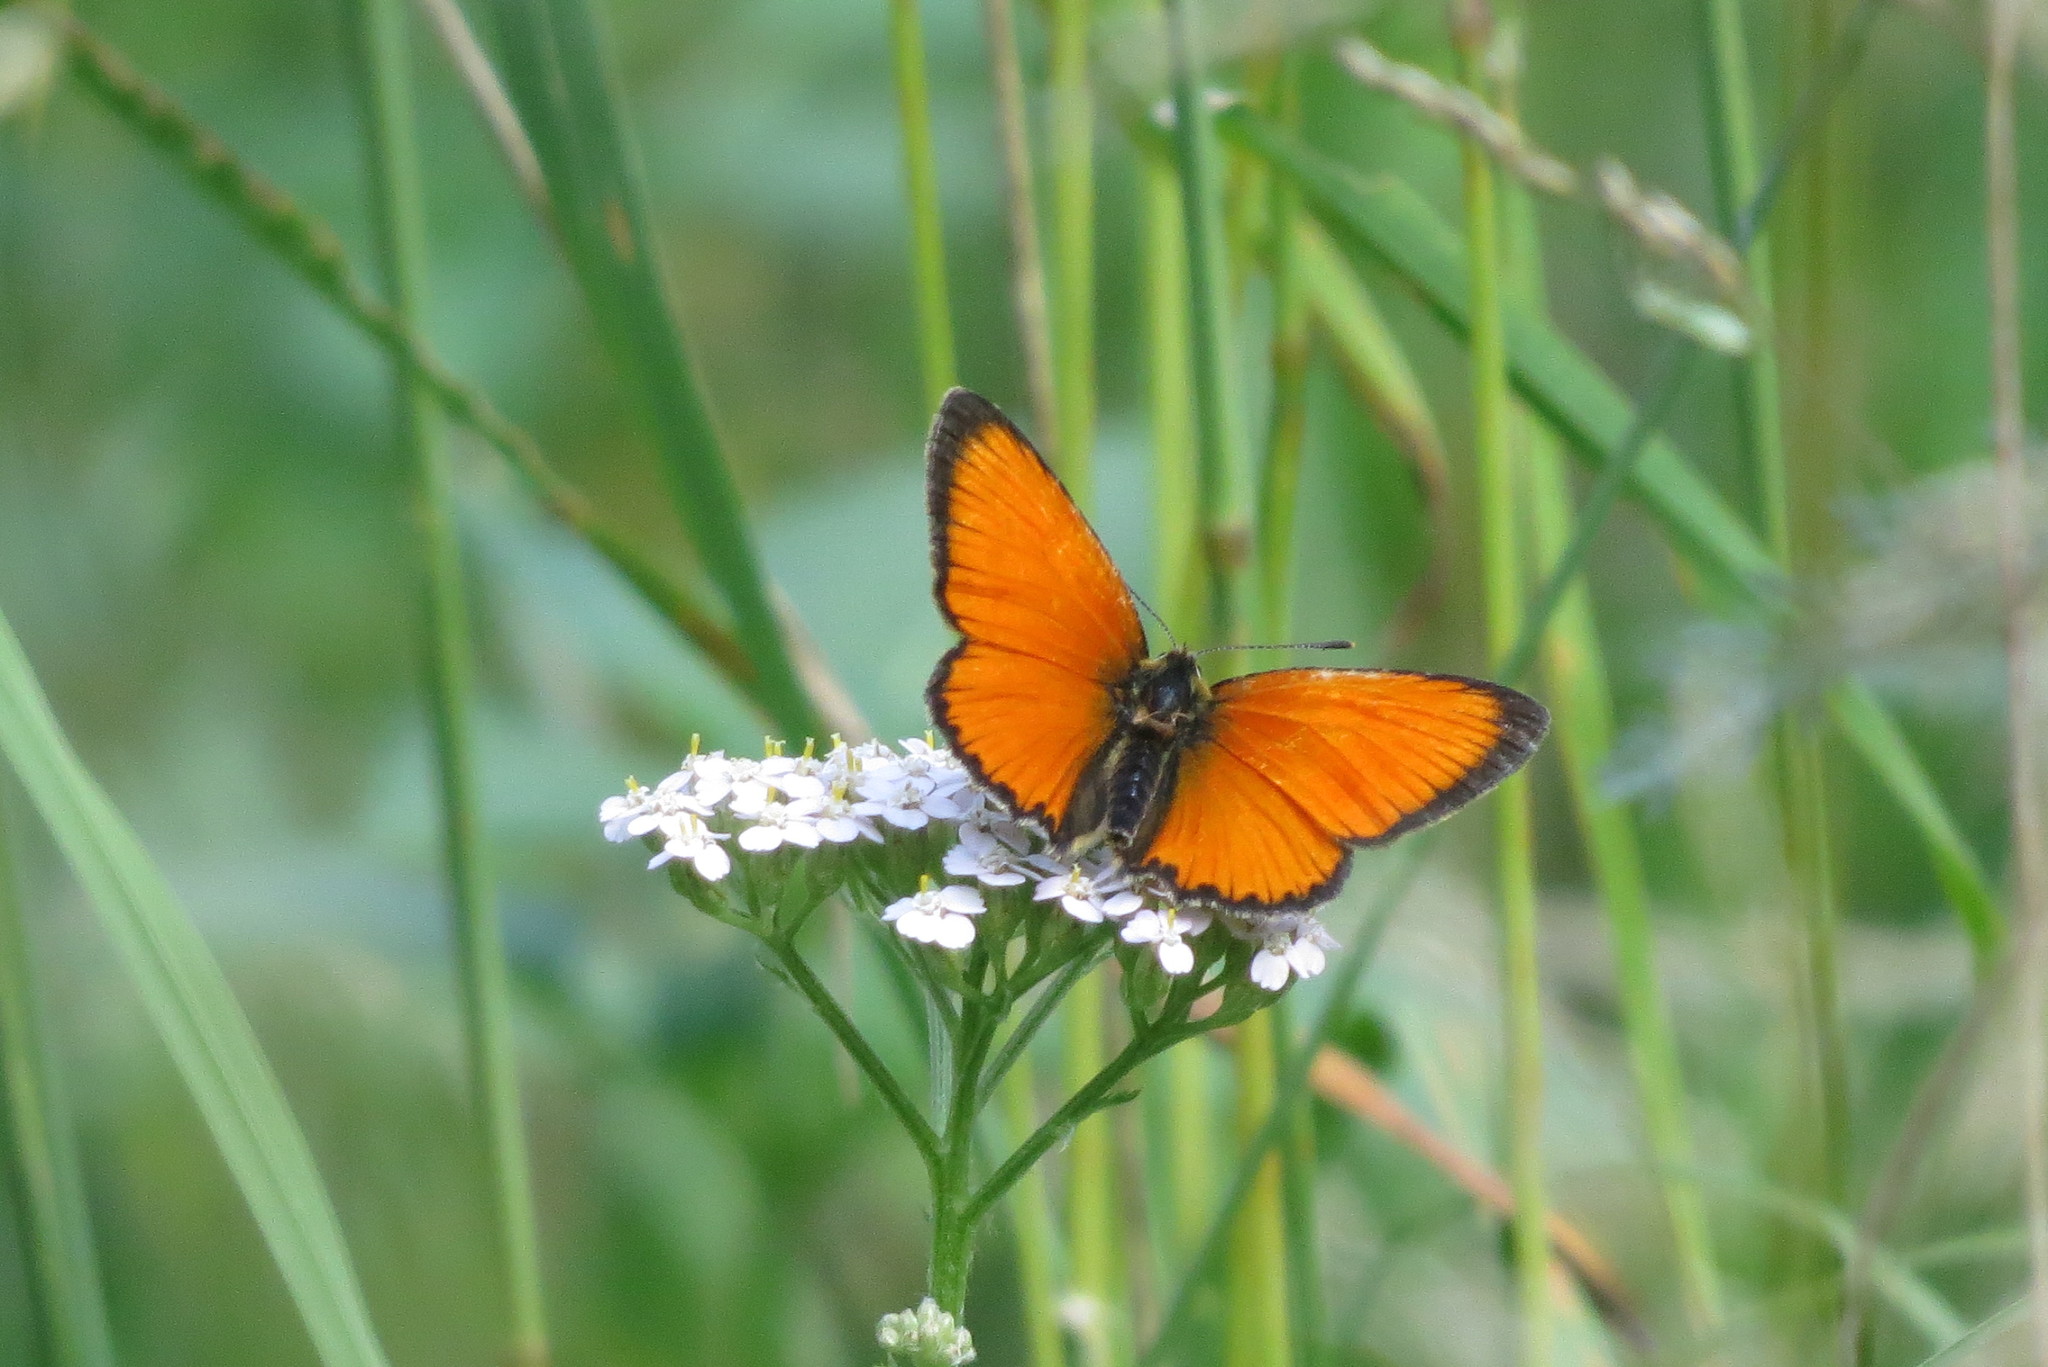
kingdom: Animalia
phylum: Arthropoda
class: Insecta
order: Lepidoptera
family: Lycaenidae
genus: Lycaena
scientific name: Lycaena virgaureae
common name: Scarce copper
